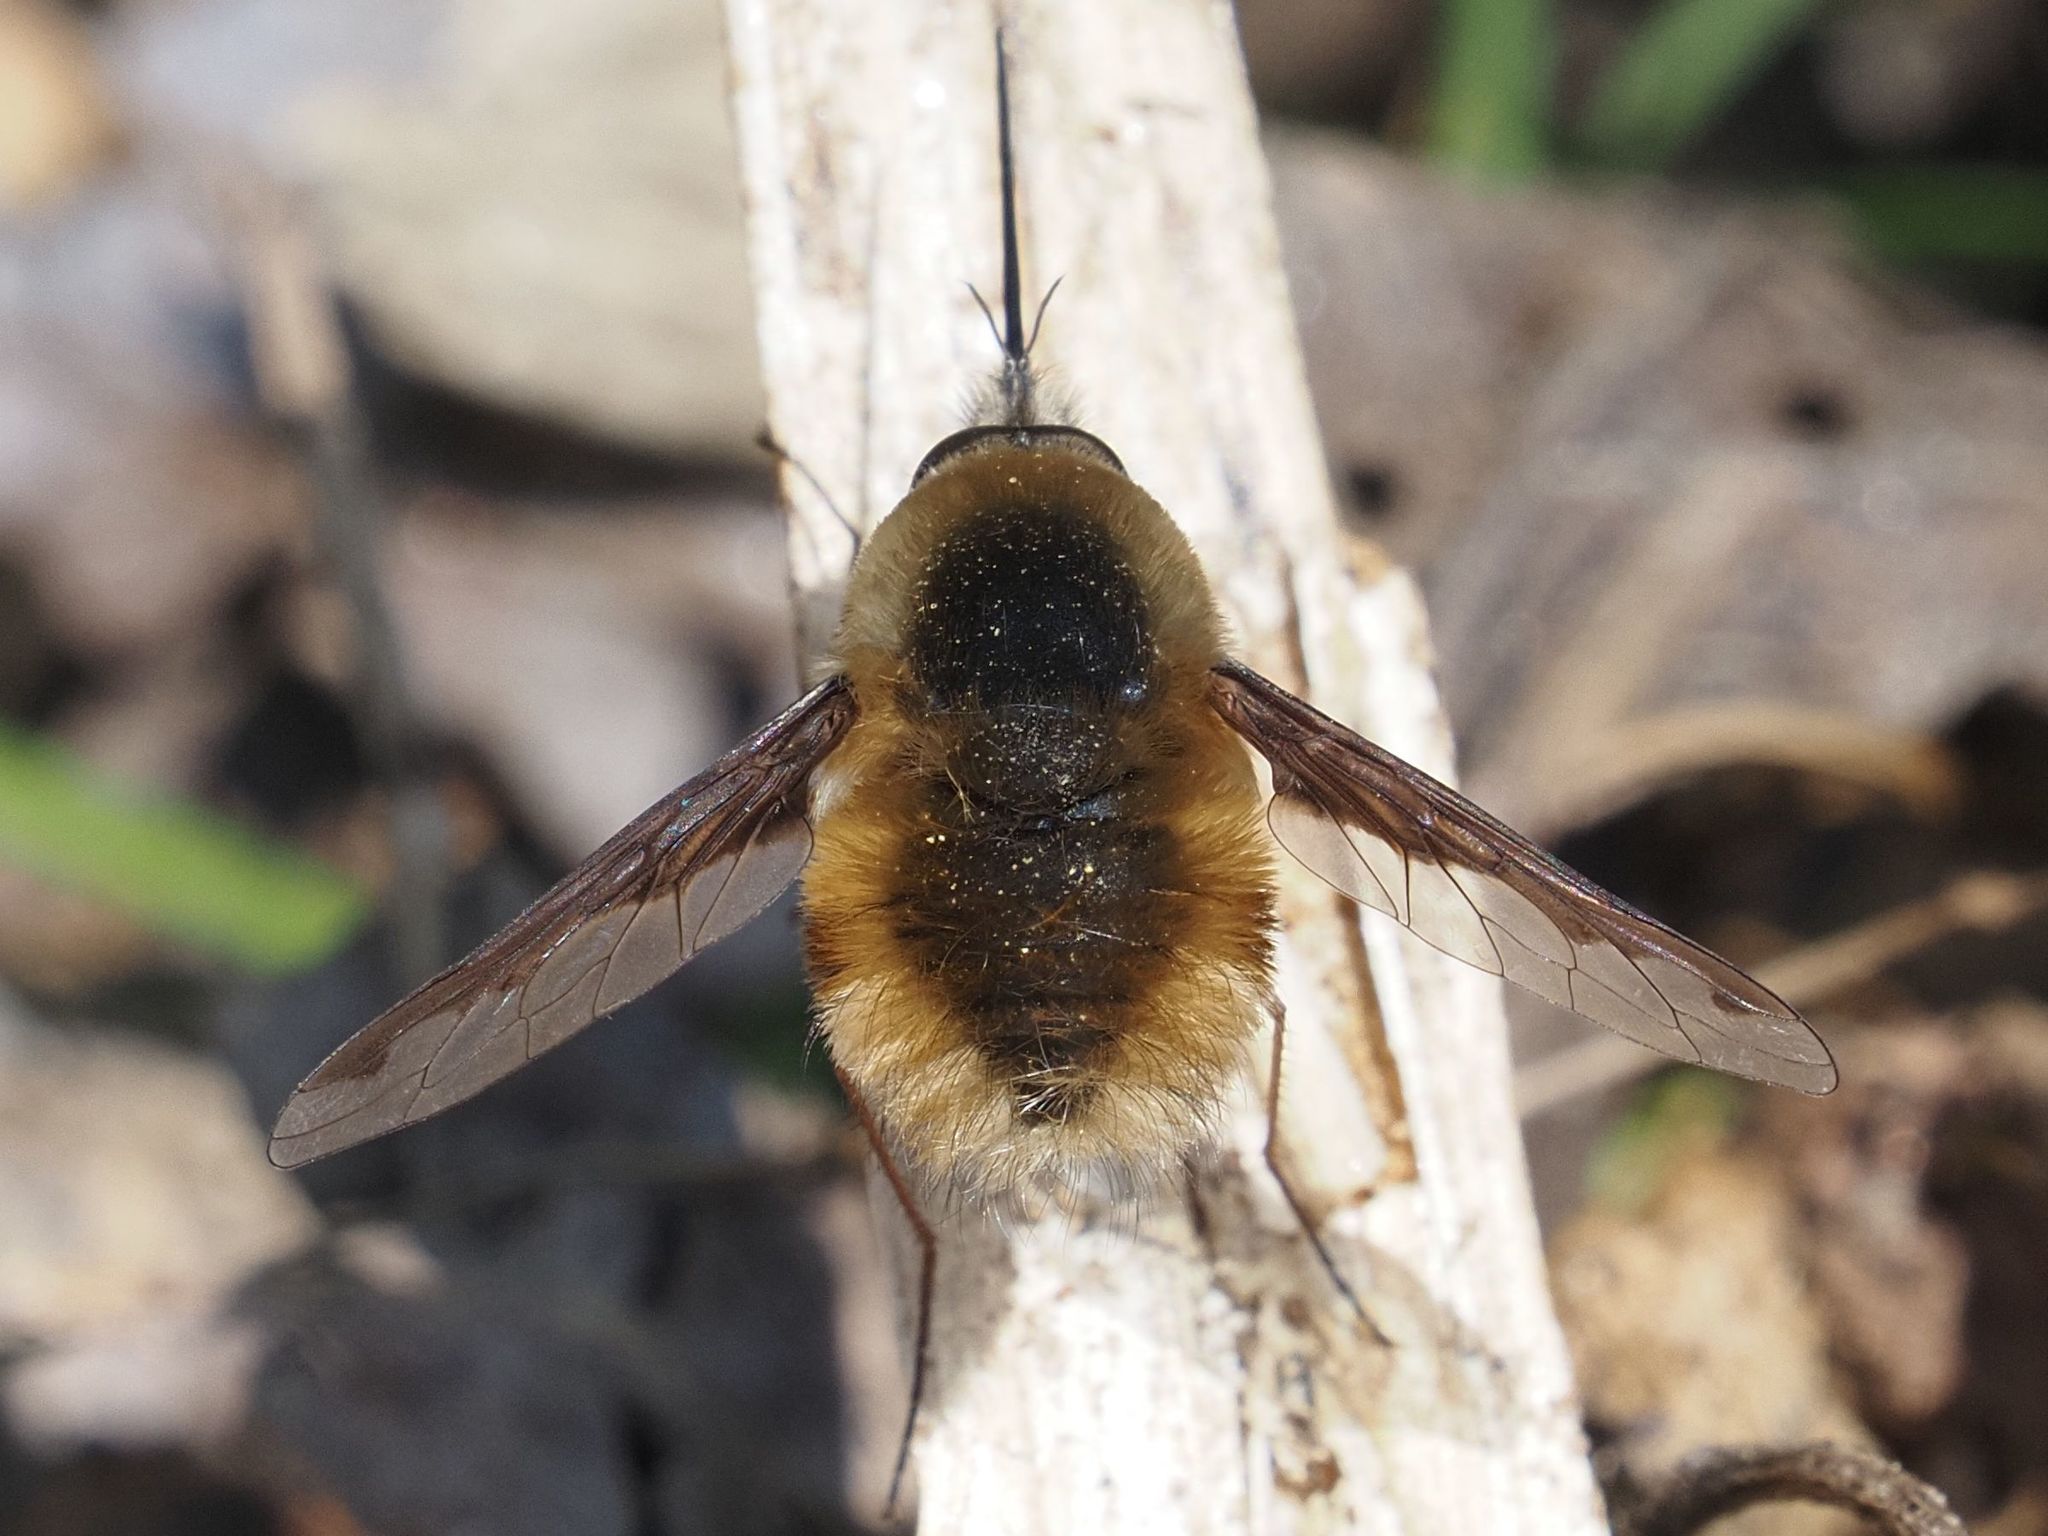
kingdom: Animalia
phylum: Arthropoda
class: Insecta
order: Diptera
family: Bombyliidae
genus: Bombylius
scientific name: Bombylius major
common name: Bee fly
